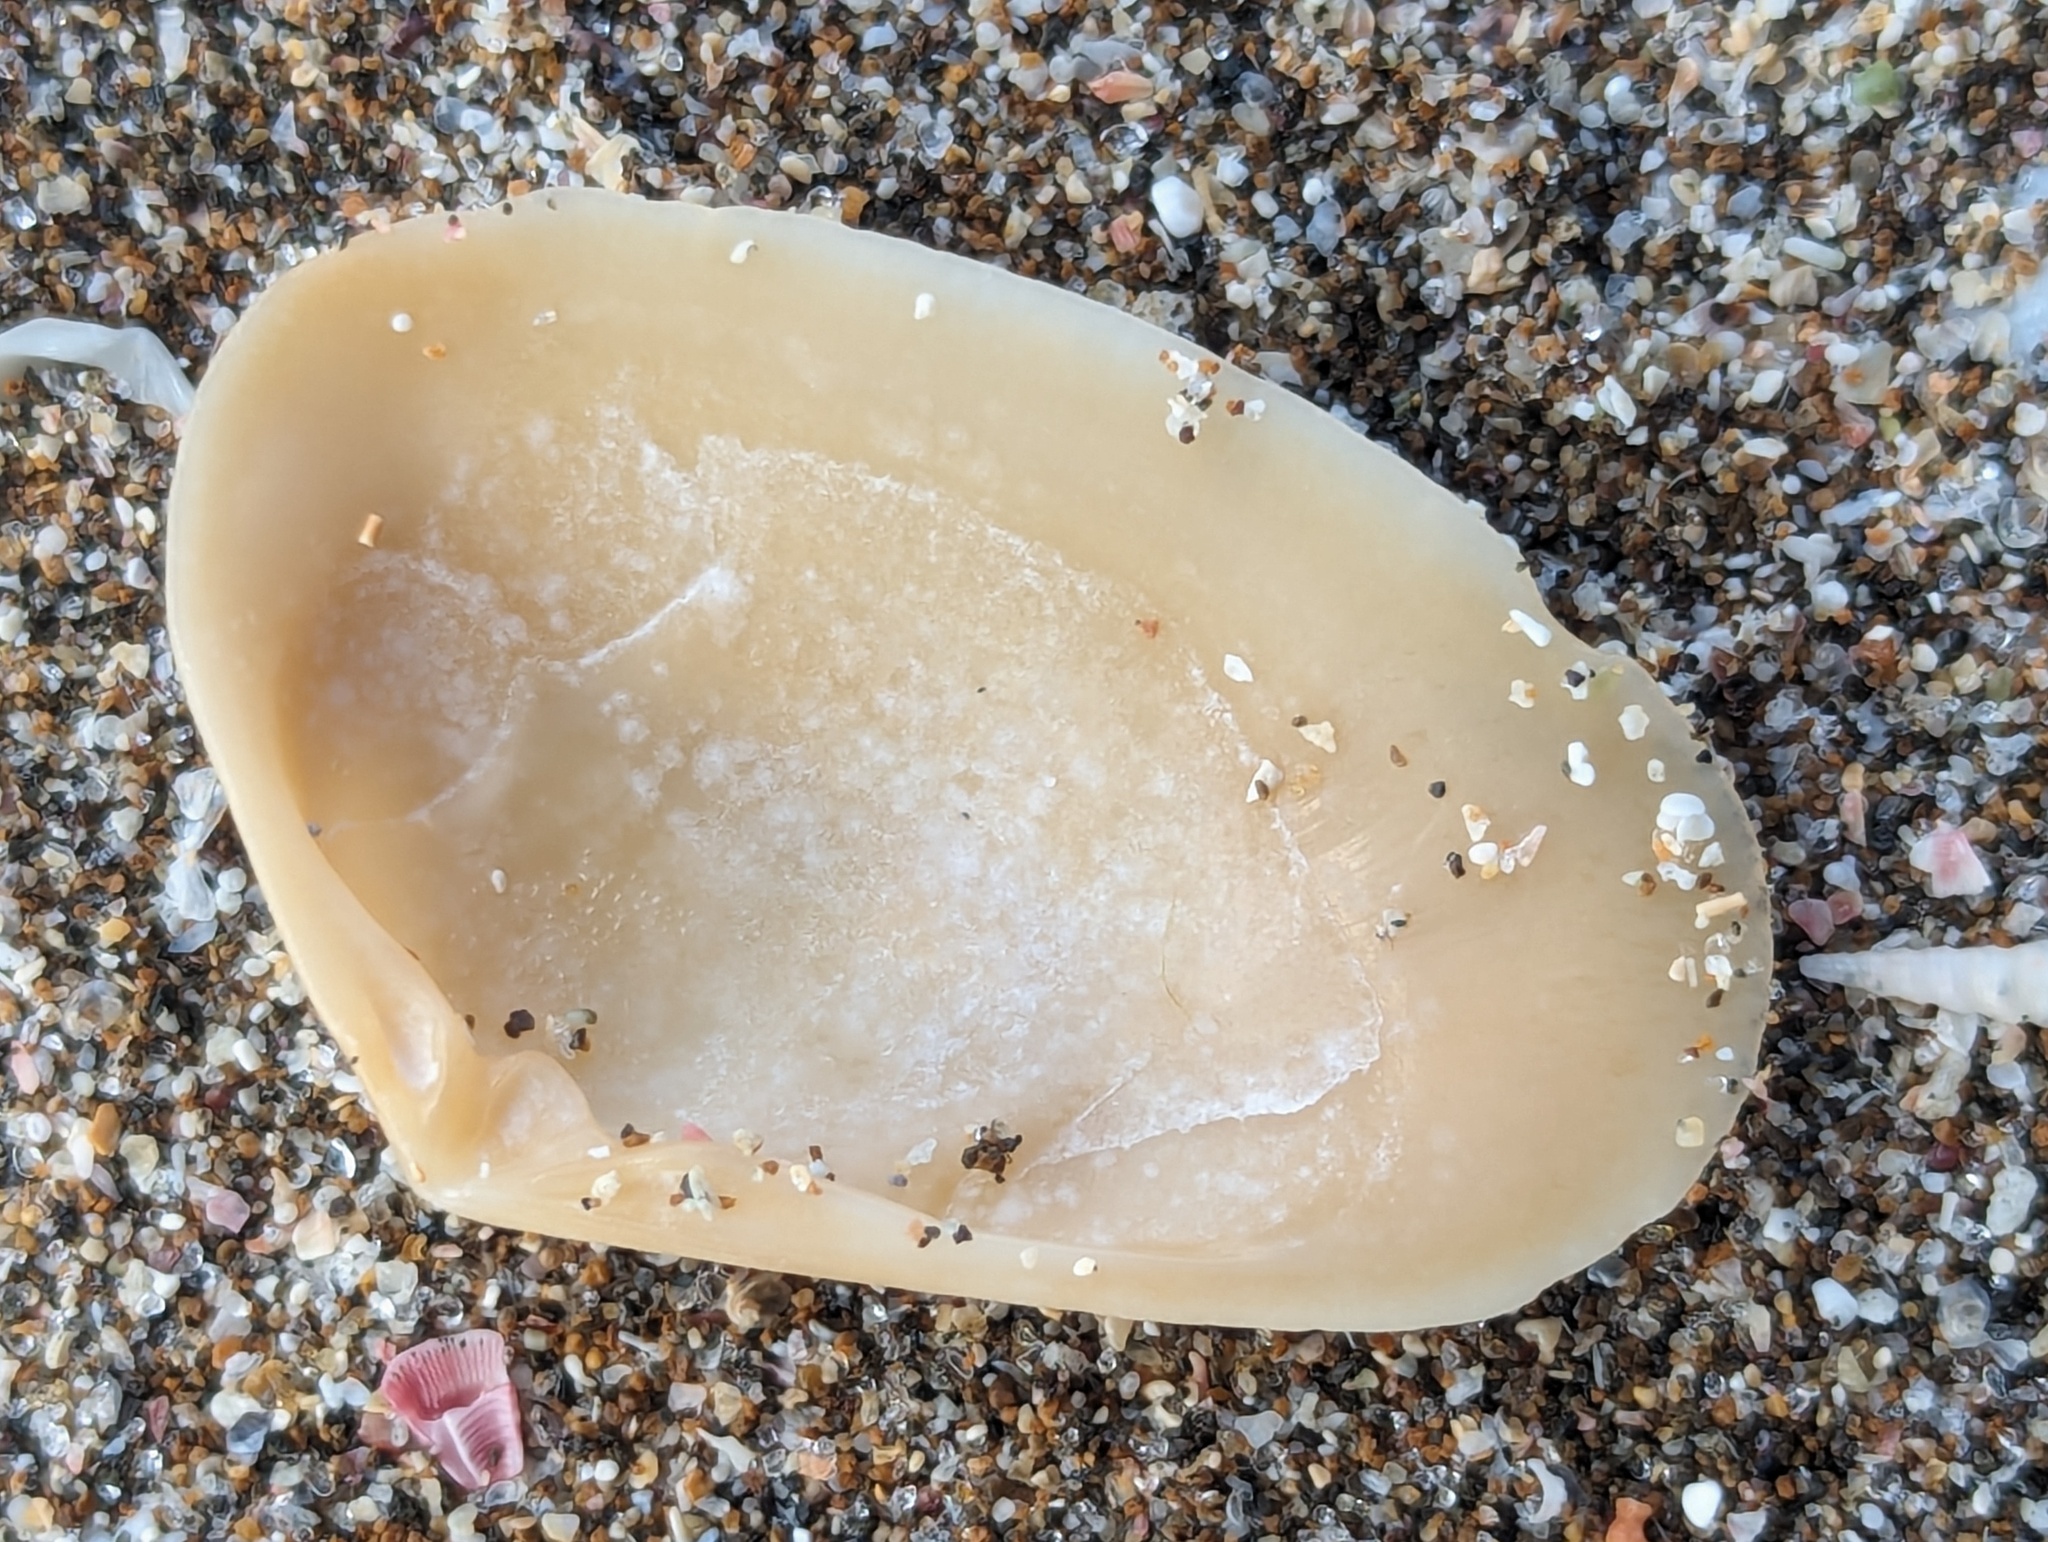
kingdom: Animalia
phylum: Mollusca
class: Bivalvia
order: Venerida
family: Mesodesmatidae
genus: Paphies
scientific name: Paphies subtriangulata
